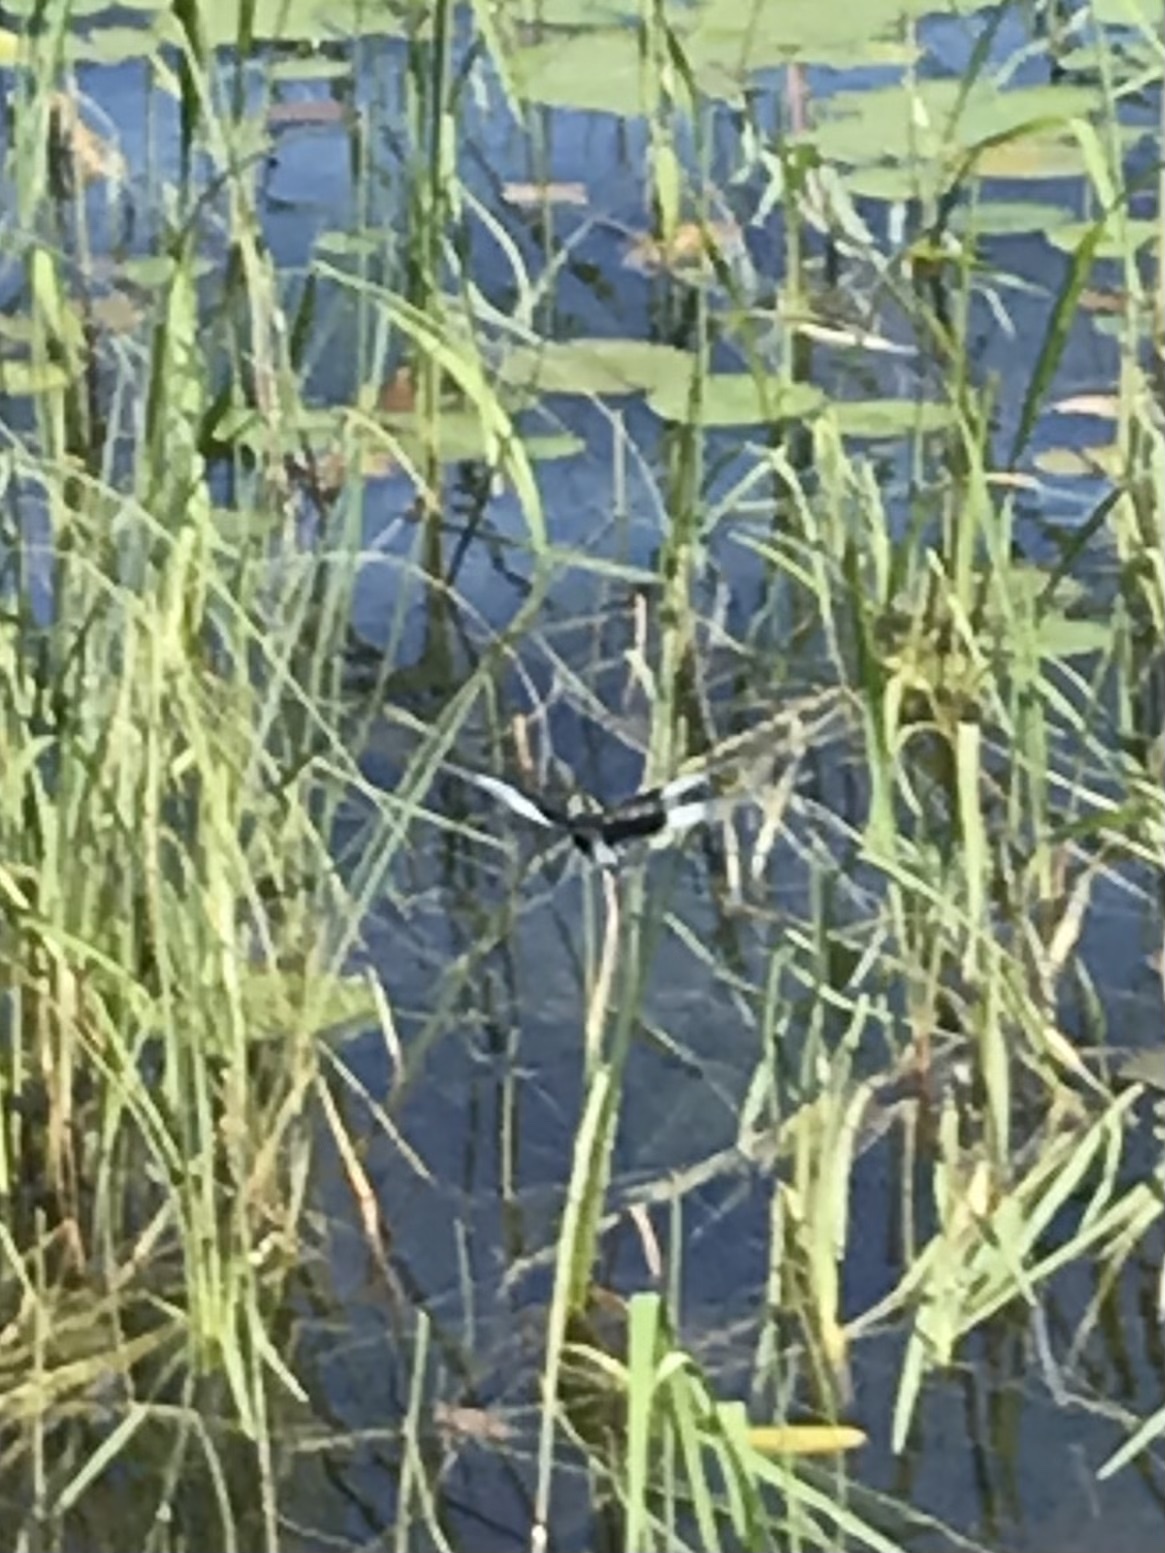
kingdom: Animalia
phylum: Arthropoda
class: Insecta
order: Odonata
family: Libellulidae
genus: Libellula
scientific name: Libellula luctuosa
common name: Widow skimmer
